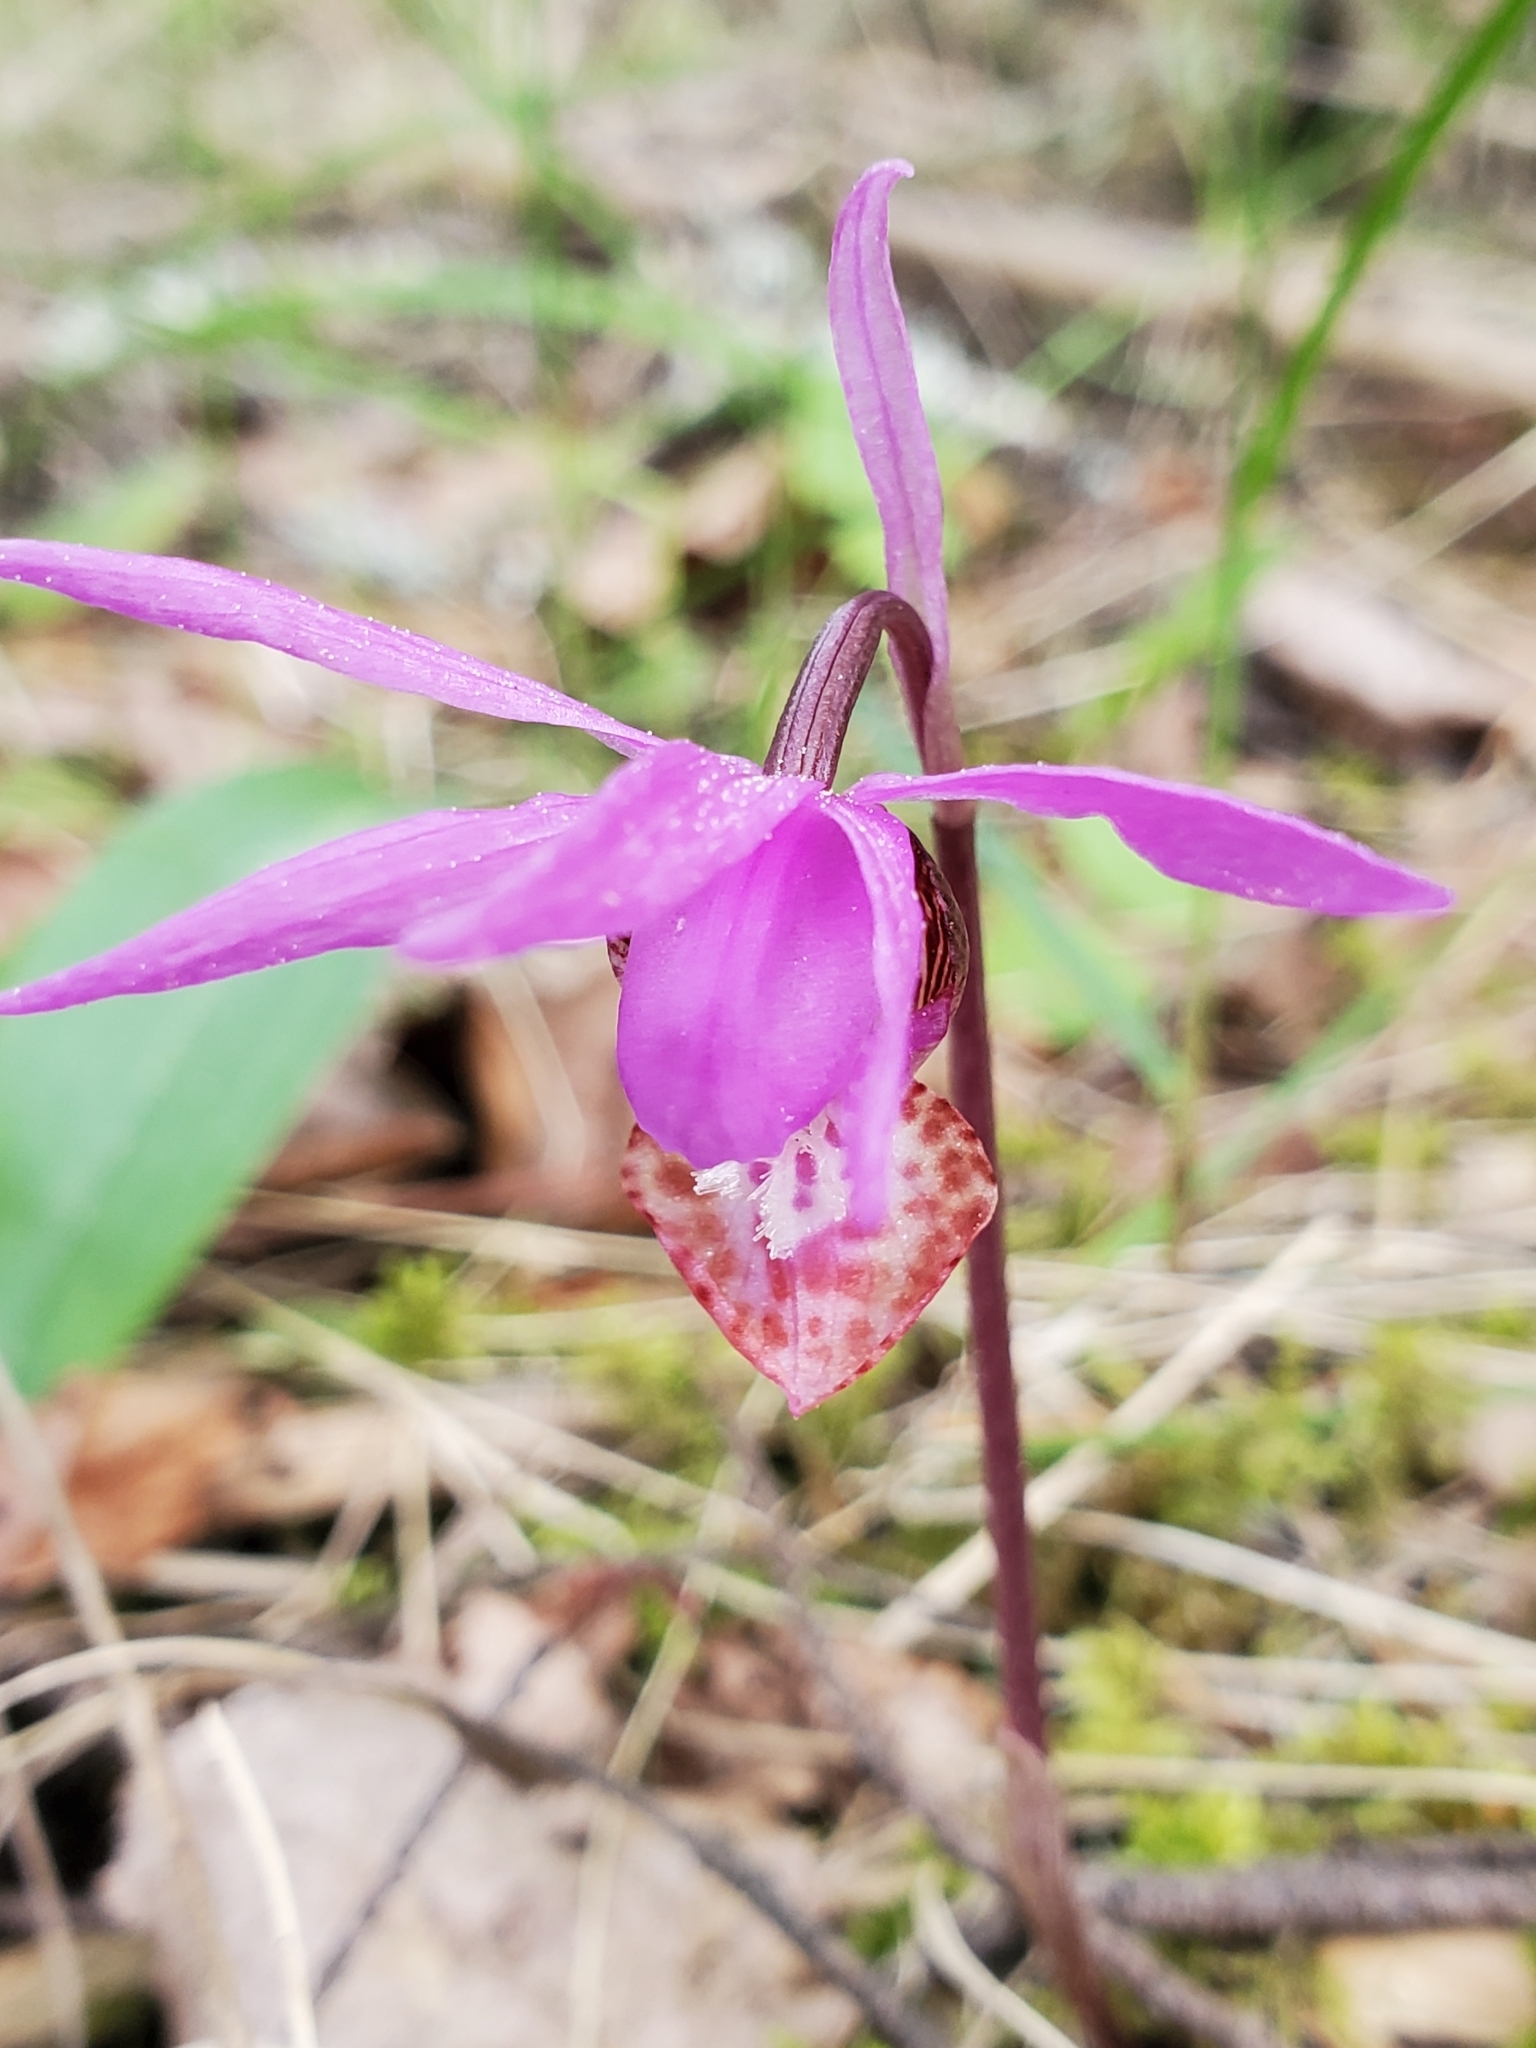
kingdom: Plantae
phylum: Tracheophyta
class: Liliopsida
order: Asparagales
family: Orchidaceae
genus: Calypso
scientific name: Calypso bulbosa
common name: Calypso
